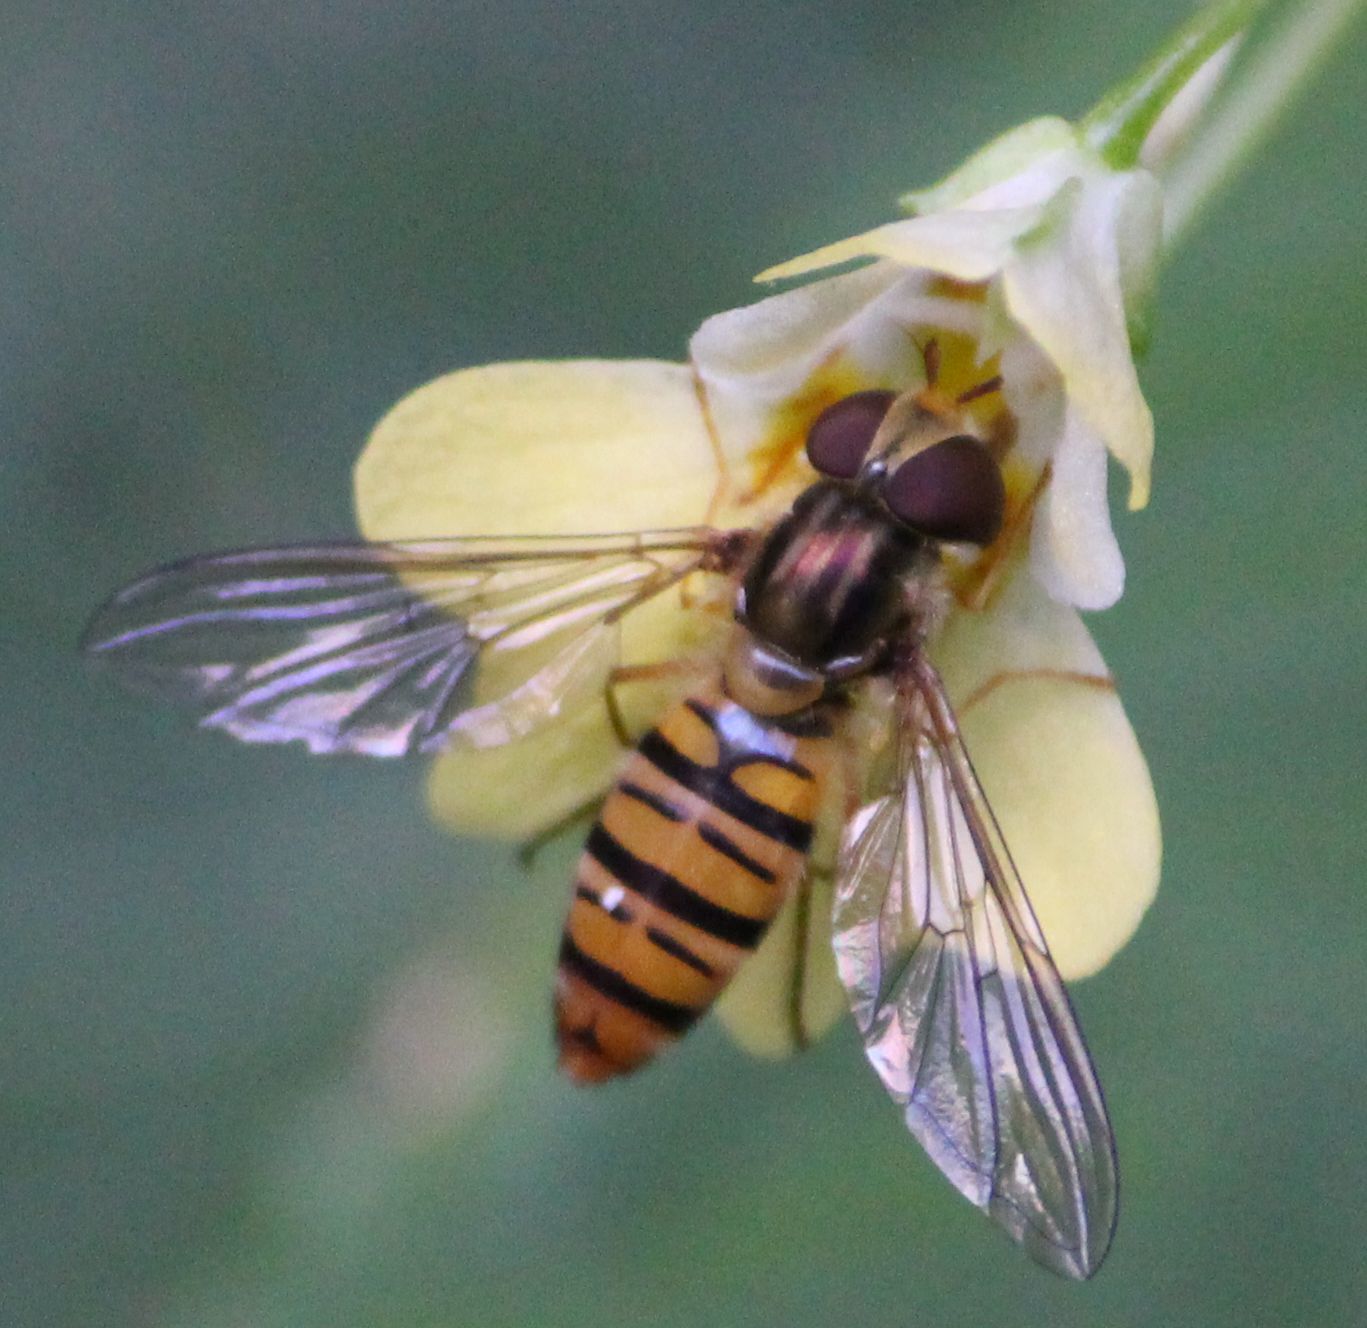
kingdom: Animalia
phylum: Arthropoda
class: Insecta
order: Diptera
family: Syrphidae
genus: Episyrphus
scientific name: Episyrphus balteatus
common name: Marmalade hoverfly
